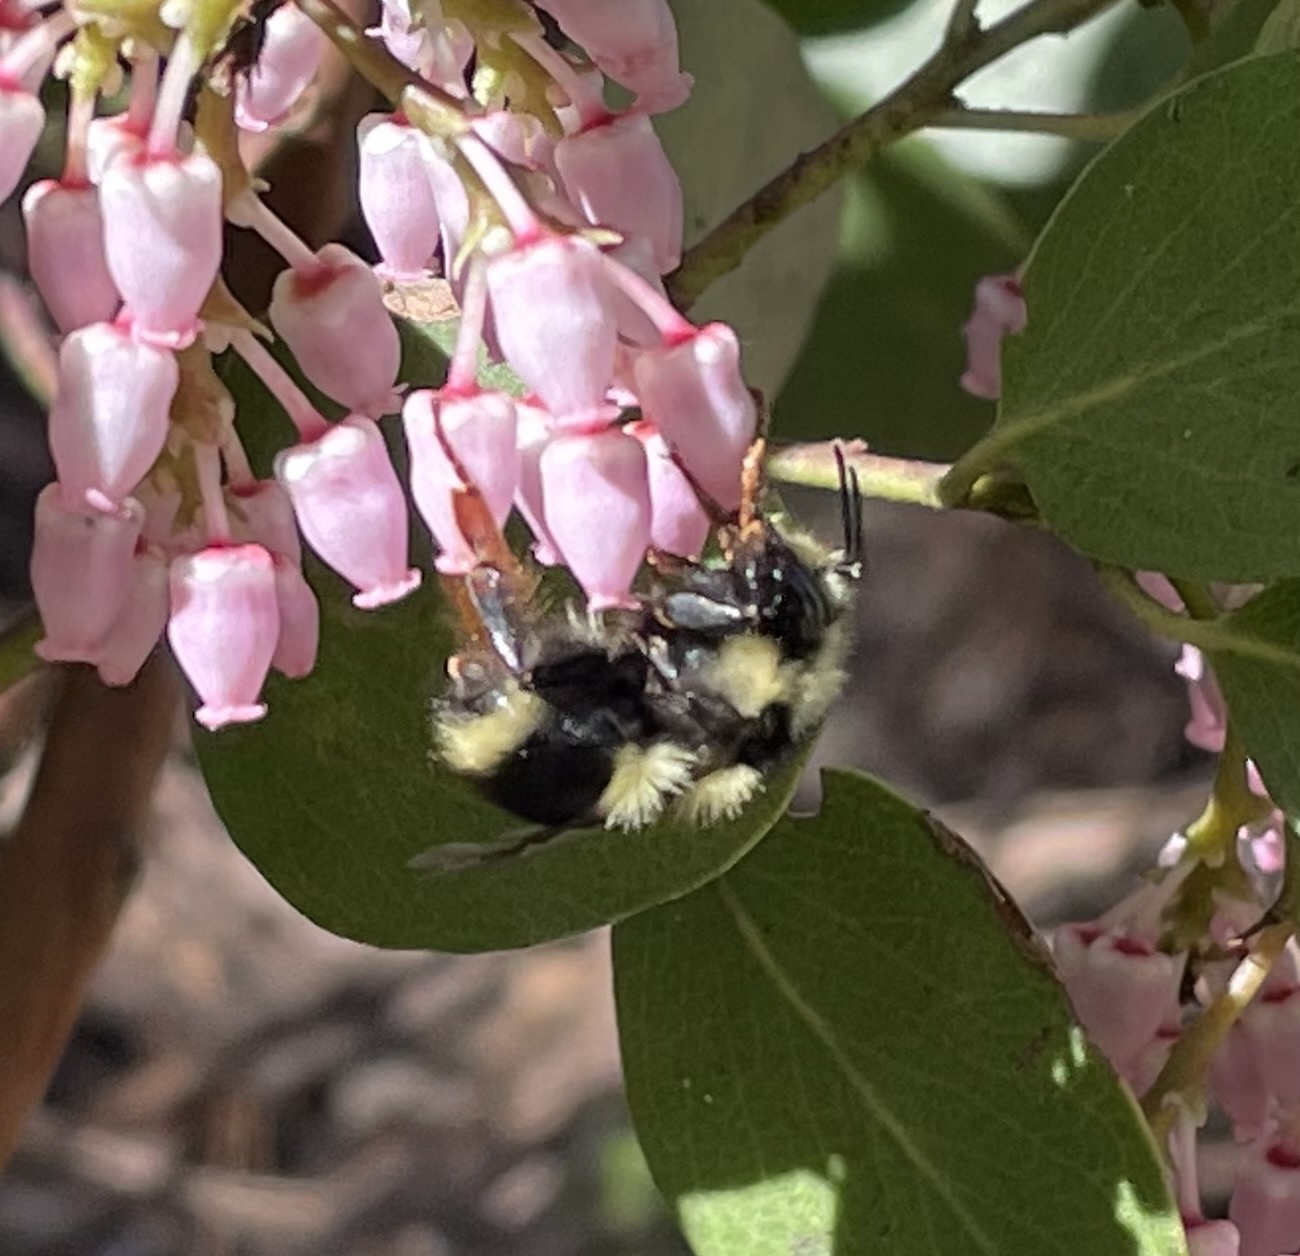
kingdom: Animalia
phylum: Arthropoda
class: Insecta
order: Hymenoptera
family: Apidae
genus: Bombus
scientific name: Bombus melanopygus
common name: Black tail bumble bee
